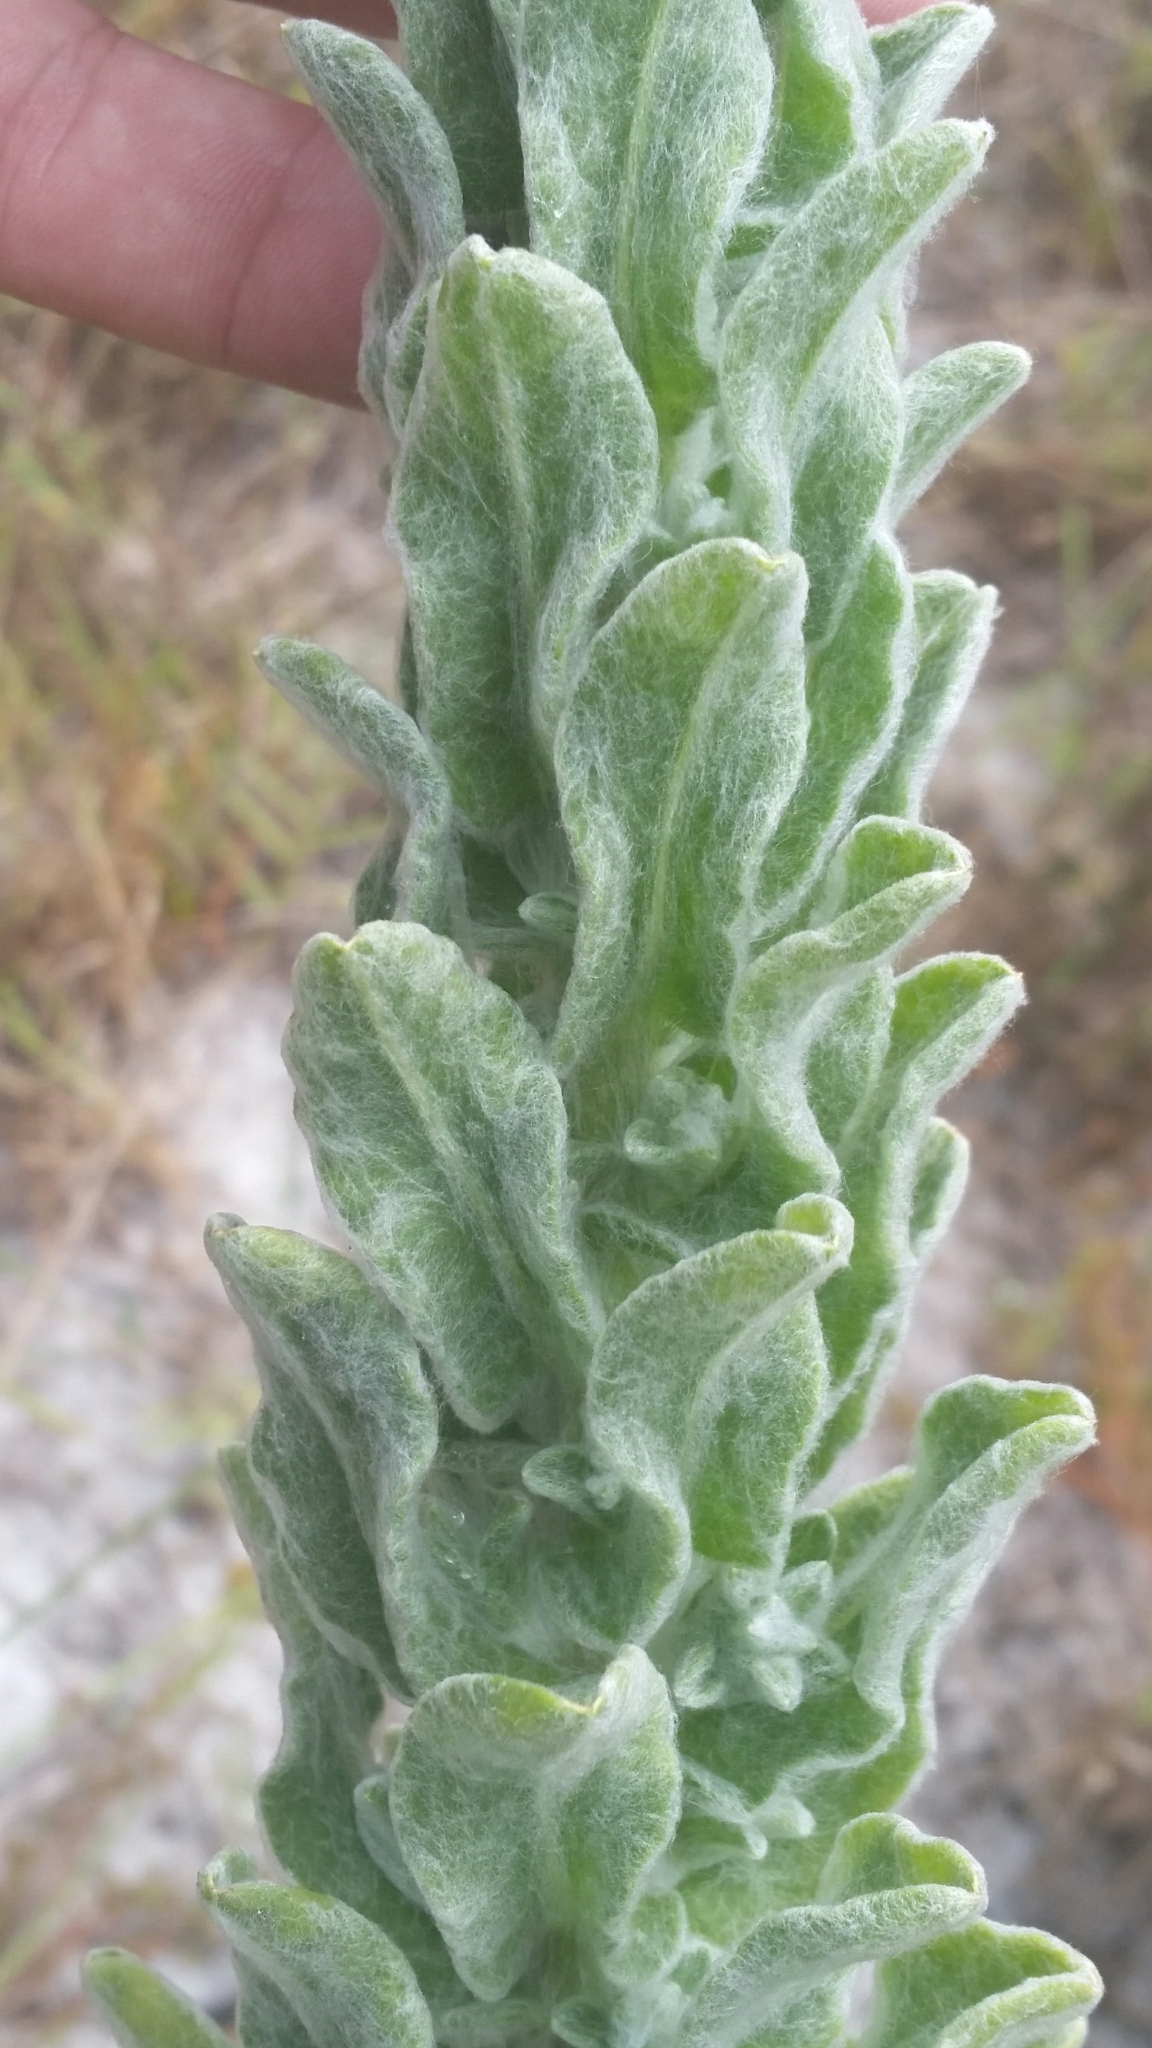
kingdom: Plantae
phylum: Tracheophyta
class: Magnoliopsida
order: Asterales
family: Asteraceae
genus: Chrysopsis
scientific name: Chrysopsis floridana
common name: Florida golden-aster
